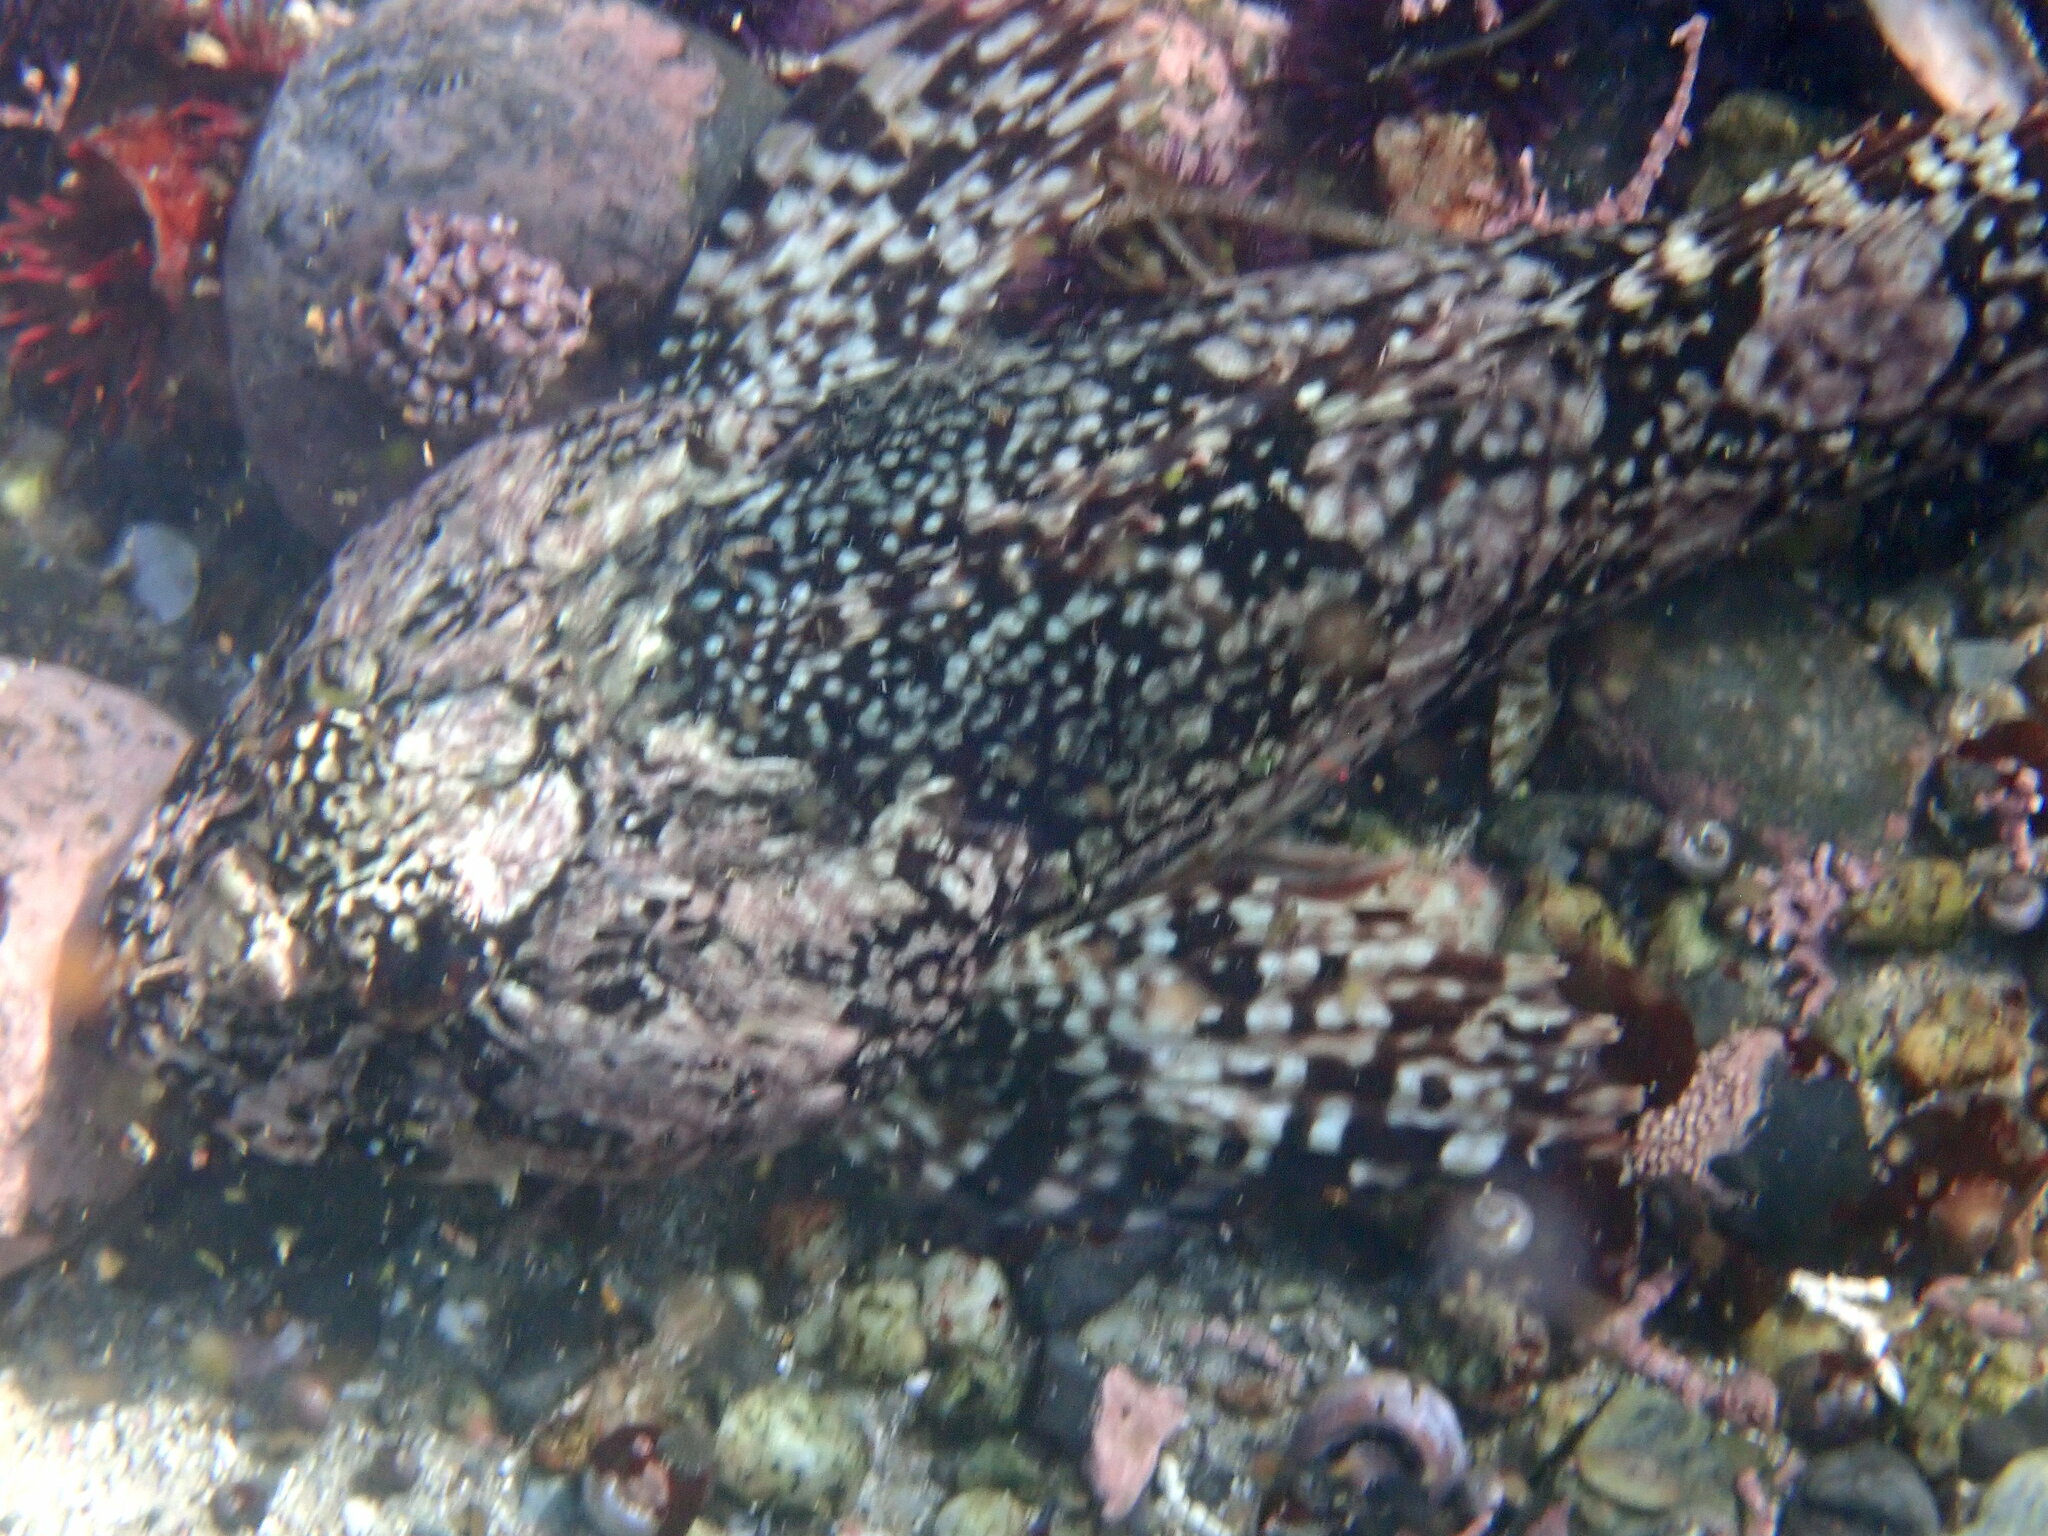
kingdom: Animalia
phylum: Chordata
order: Scorpaeniformes
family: Cottidae
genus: Scorpaenichthys
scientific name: Scorpaenichthys marmoratus
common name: Cabezon
